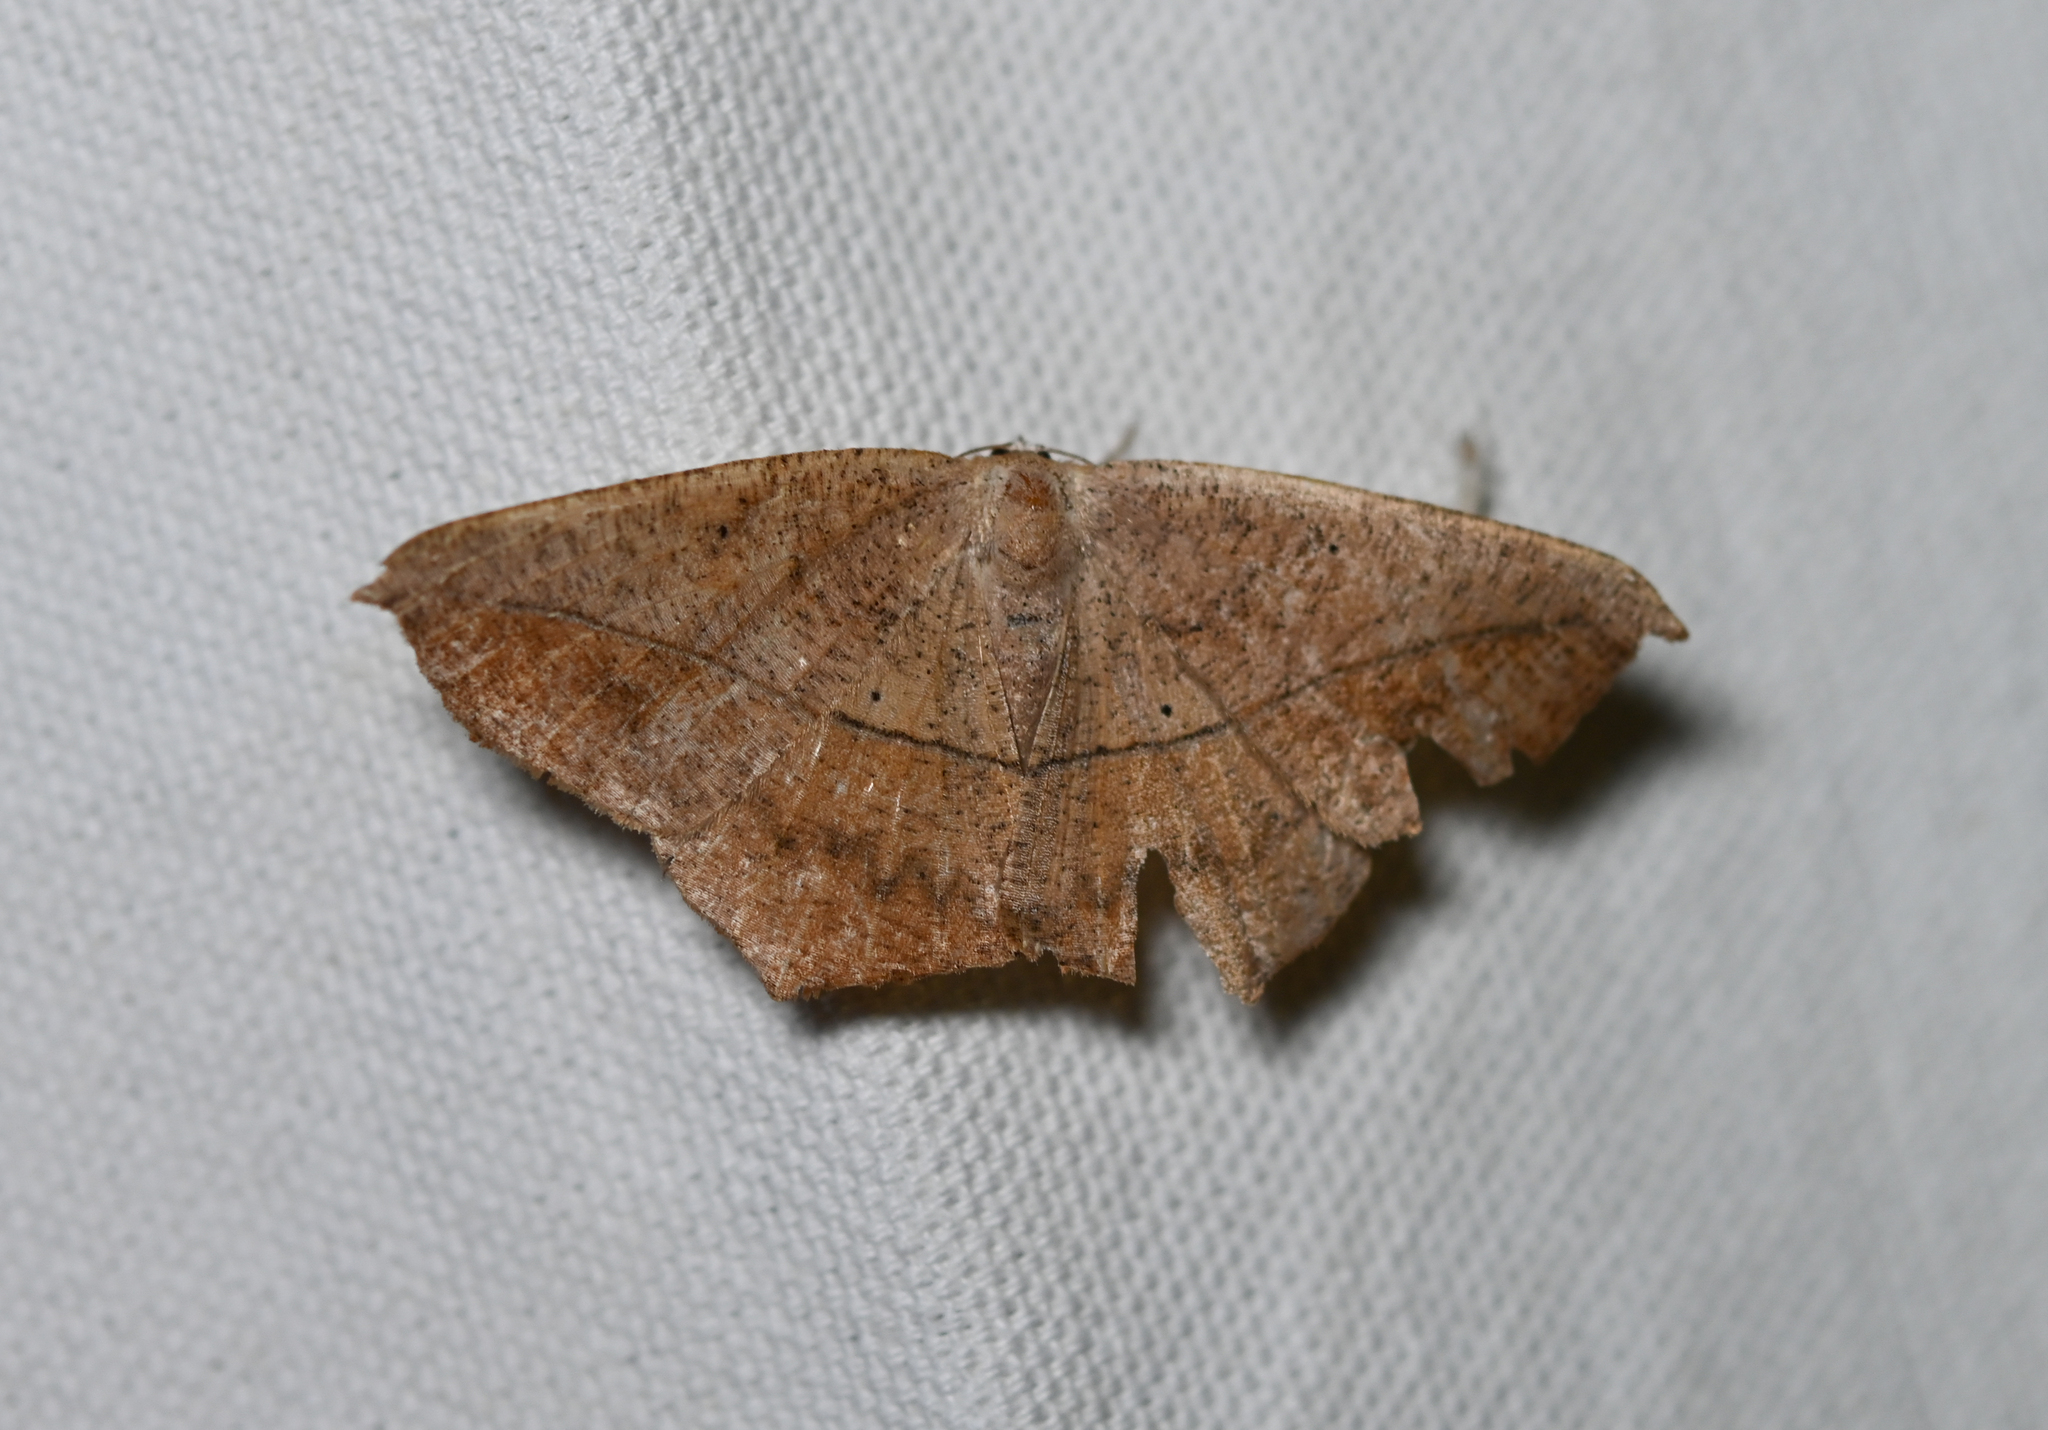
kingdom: Animalia
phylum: Arthropoda
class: Insecta
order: Lepidoptera
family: Geometridae
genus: Prochoerodes
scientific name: Prochoerodes lineola
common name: Large maple spanworm
